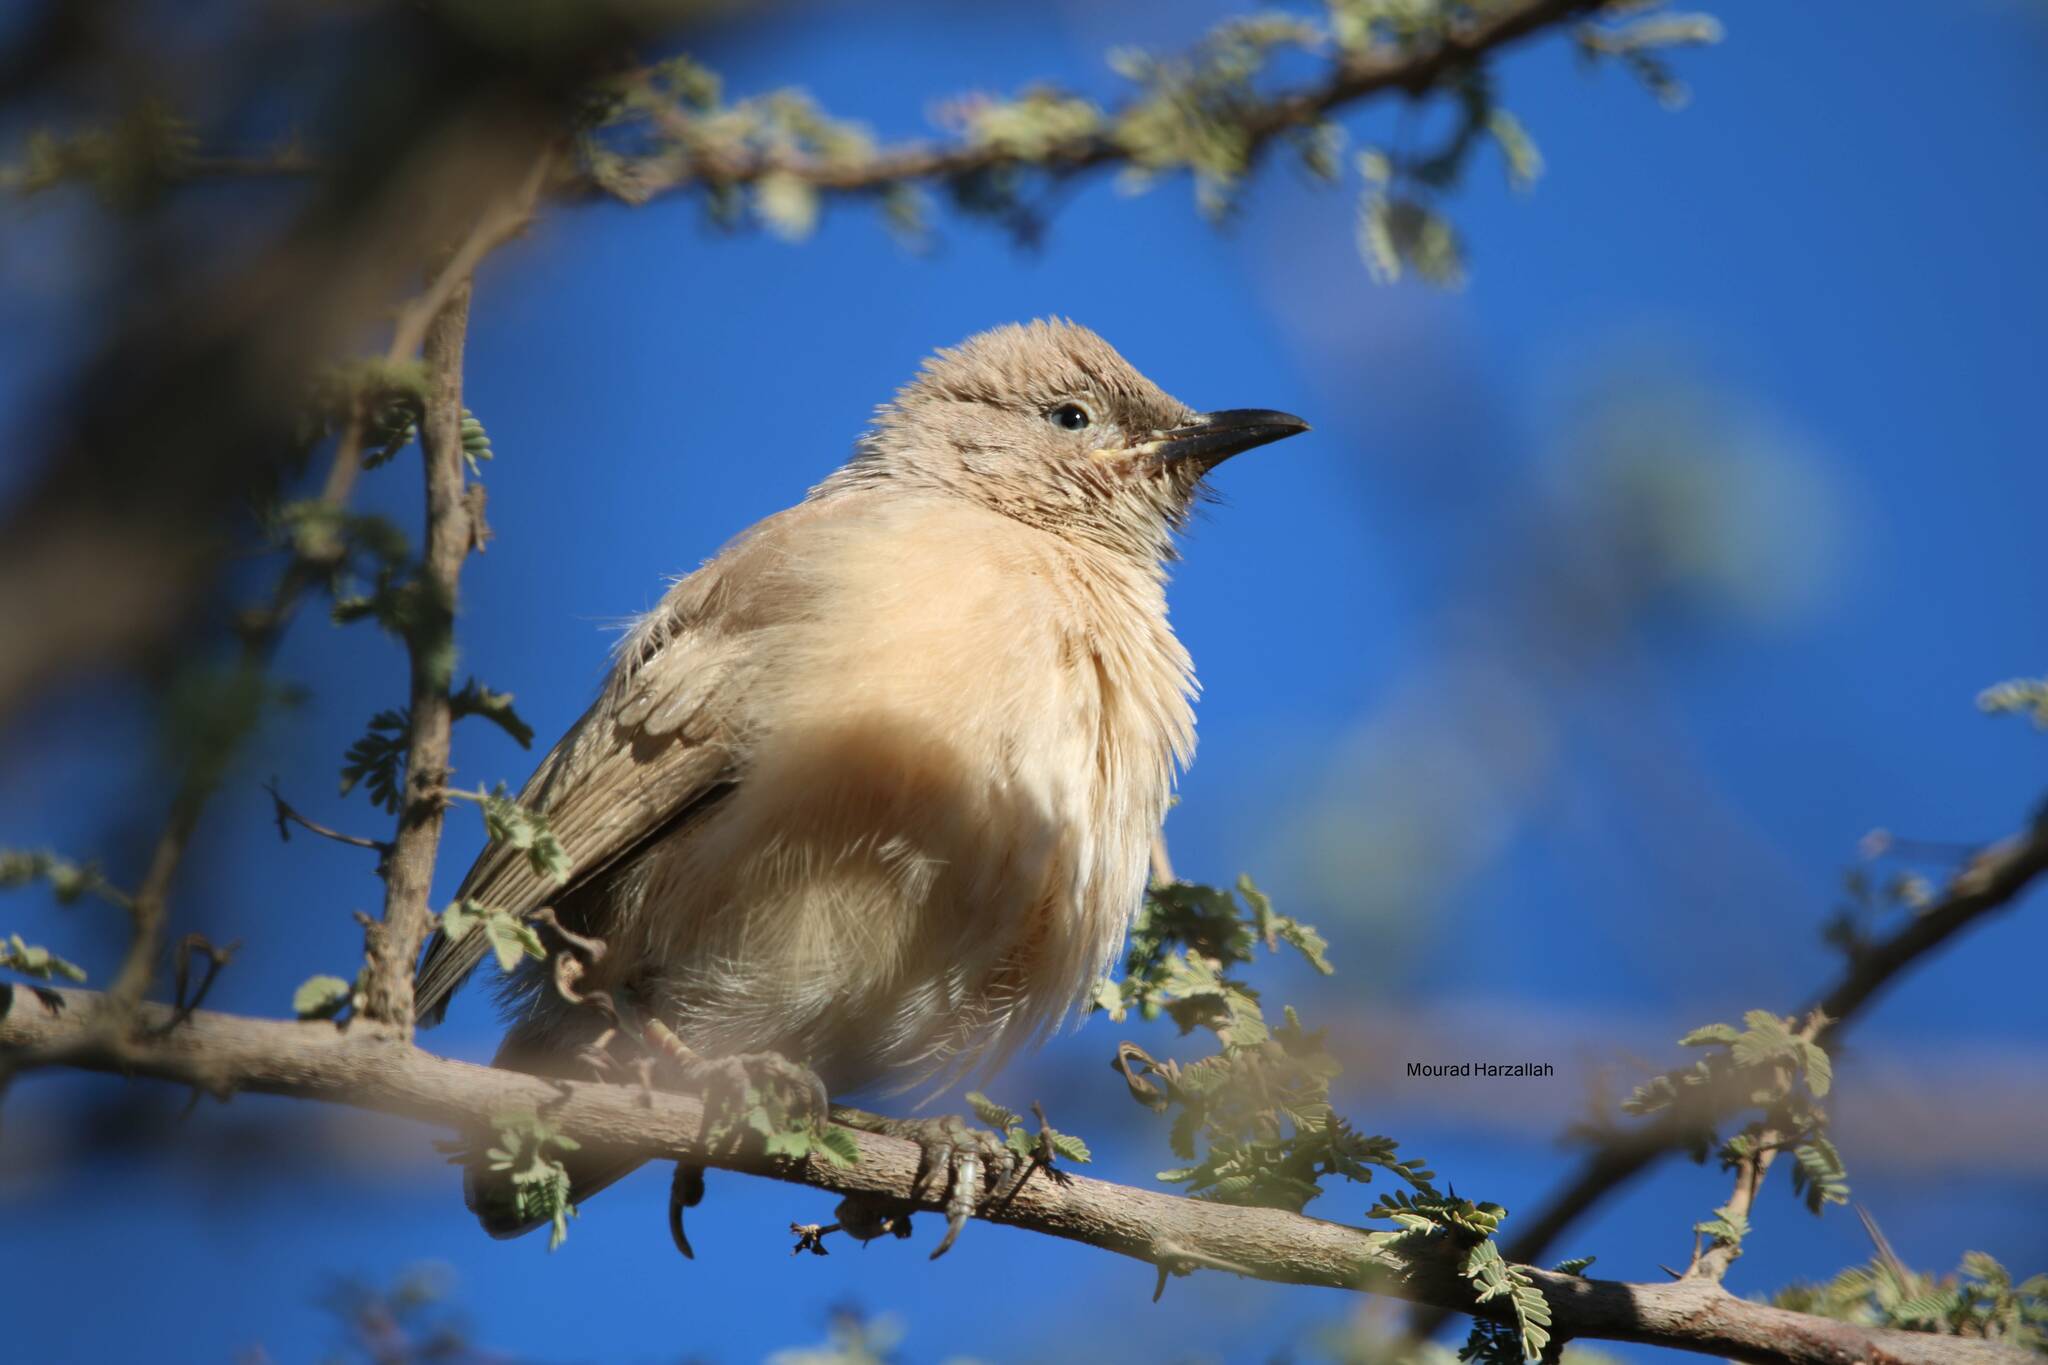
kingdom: Animalia
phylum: Chordata
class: Aves
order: Passeriformes
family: Leiothrichidae
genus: Turdoides
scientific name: Turdoides fulva
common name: Fulvous babbler
